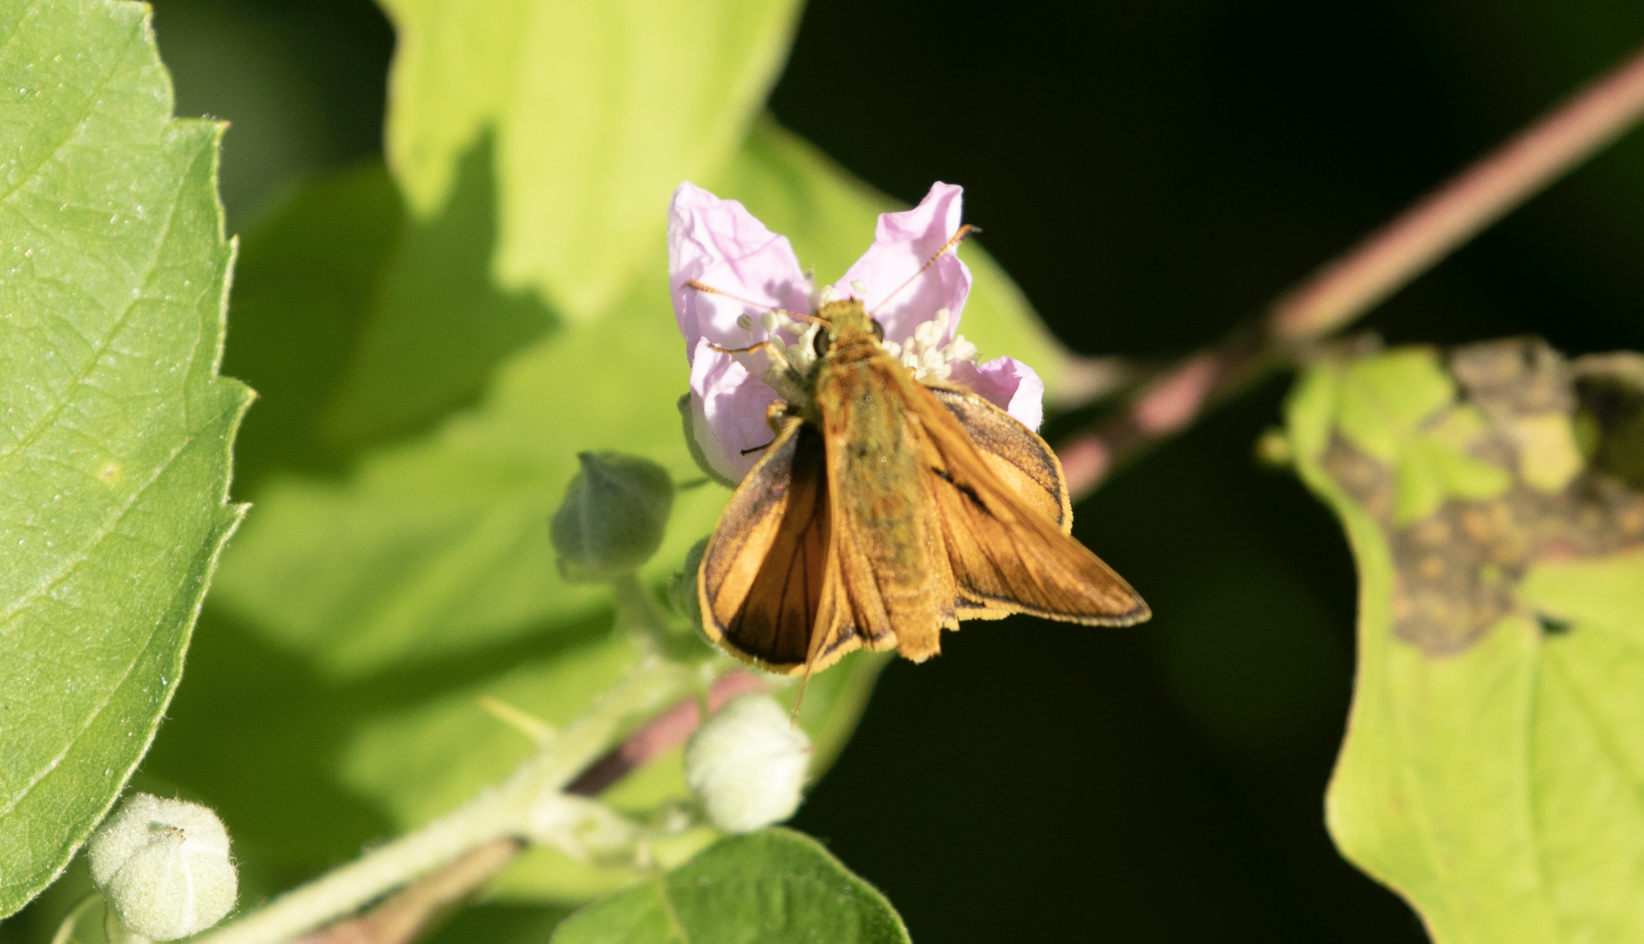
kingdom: Animalia
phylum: Arthropoda
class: Insecta
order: Lepidoptera
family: Hesperiidae
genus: Ochlodes
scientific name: Ochlodes venata
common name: Large skipper
